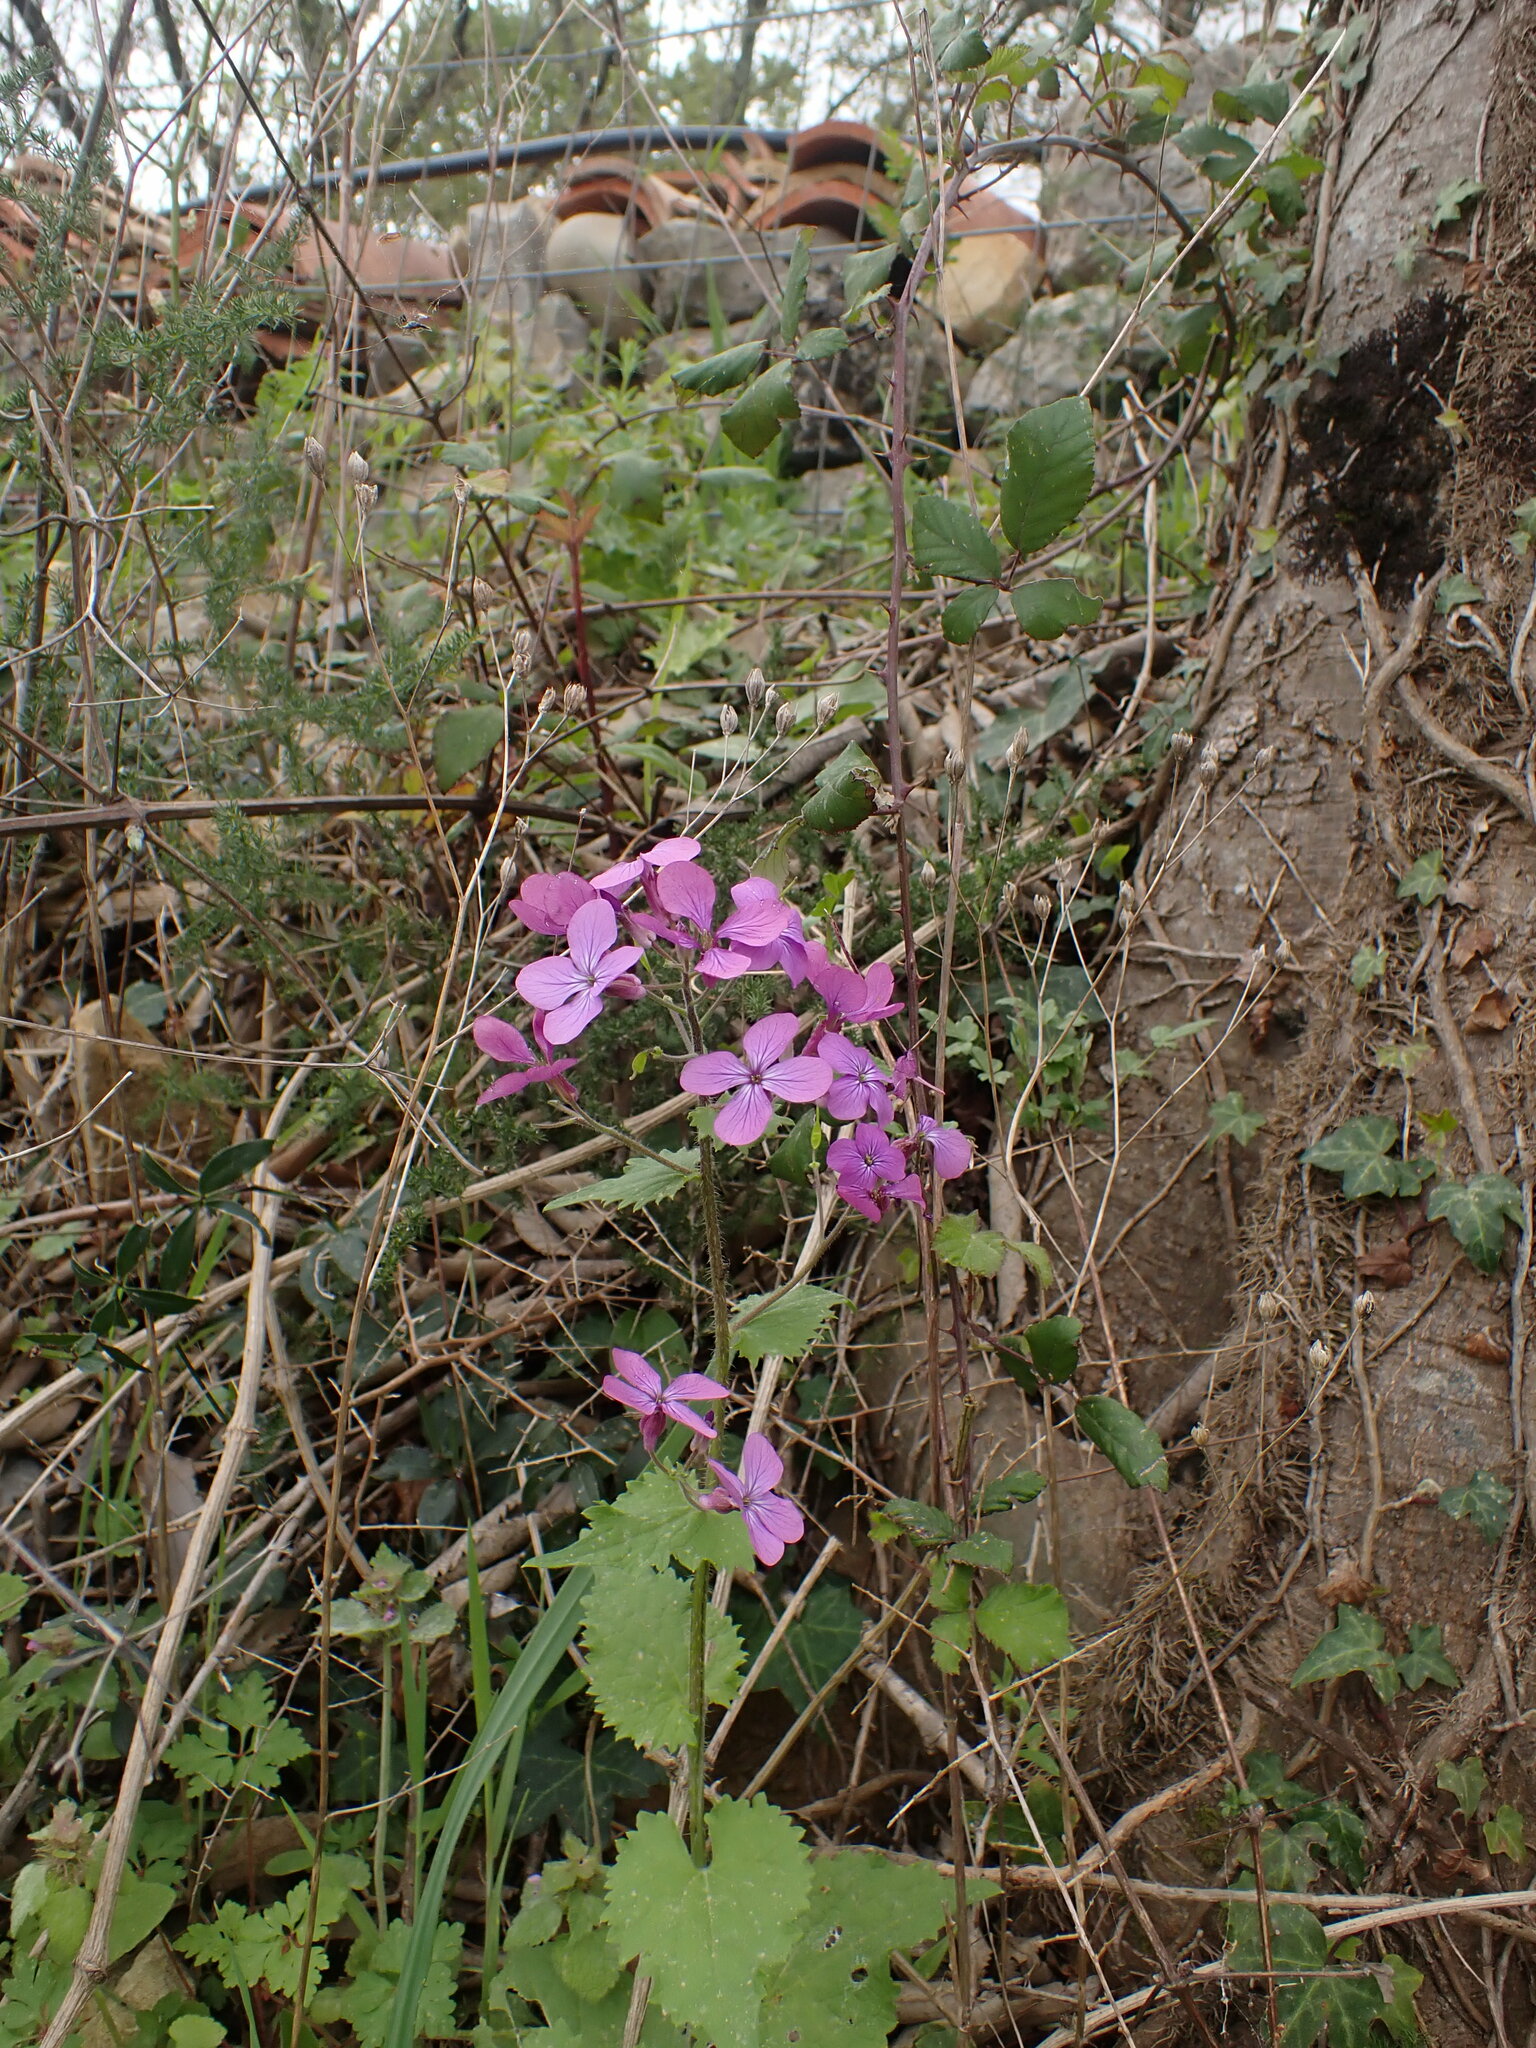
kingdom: Plantae
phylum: Tracheophyta
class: Magnoliopsida
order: Brassicales
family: Brassicaceae
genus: Lunaria
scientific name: Lunaria annua
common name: Honesty
